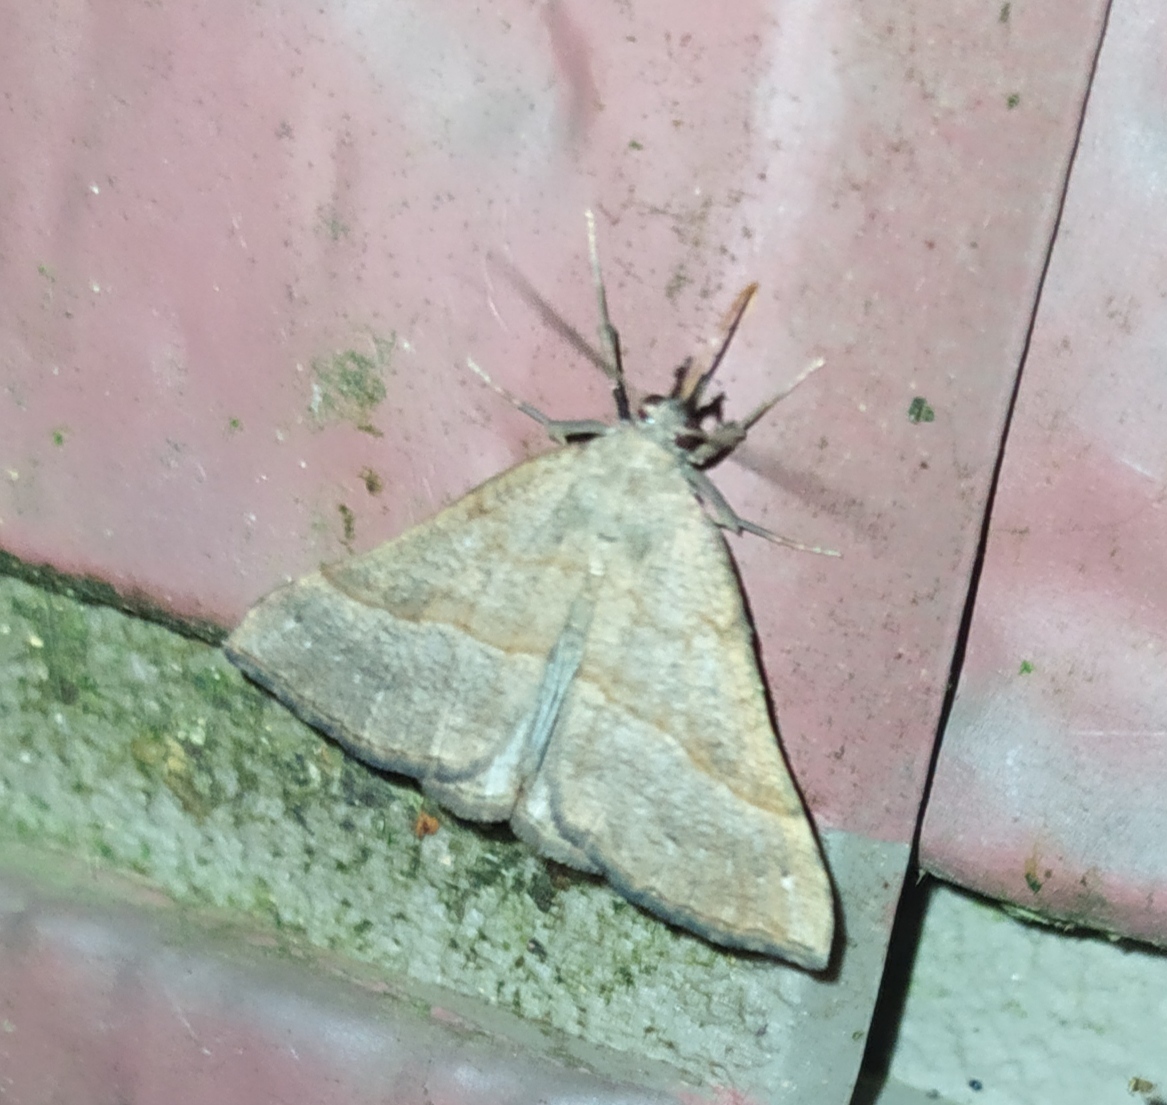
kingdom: Animalia
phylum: Arthropoda
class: Insecta
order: Lepidoptera
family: Erebidae
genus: Hypena
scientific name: Hypena proboscidalis
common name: Snout
